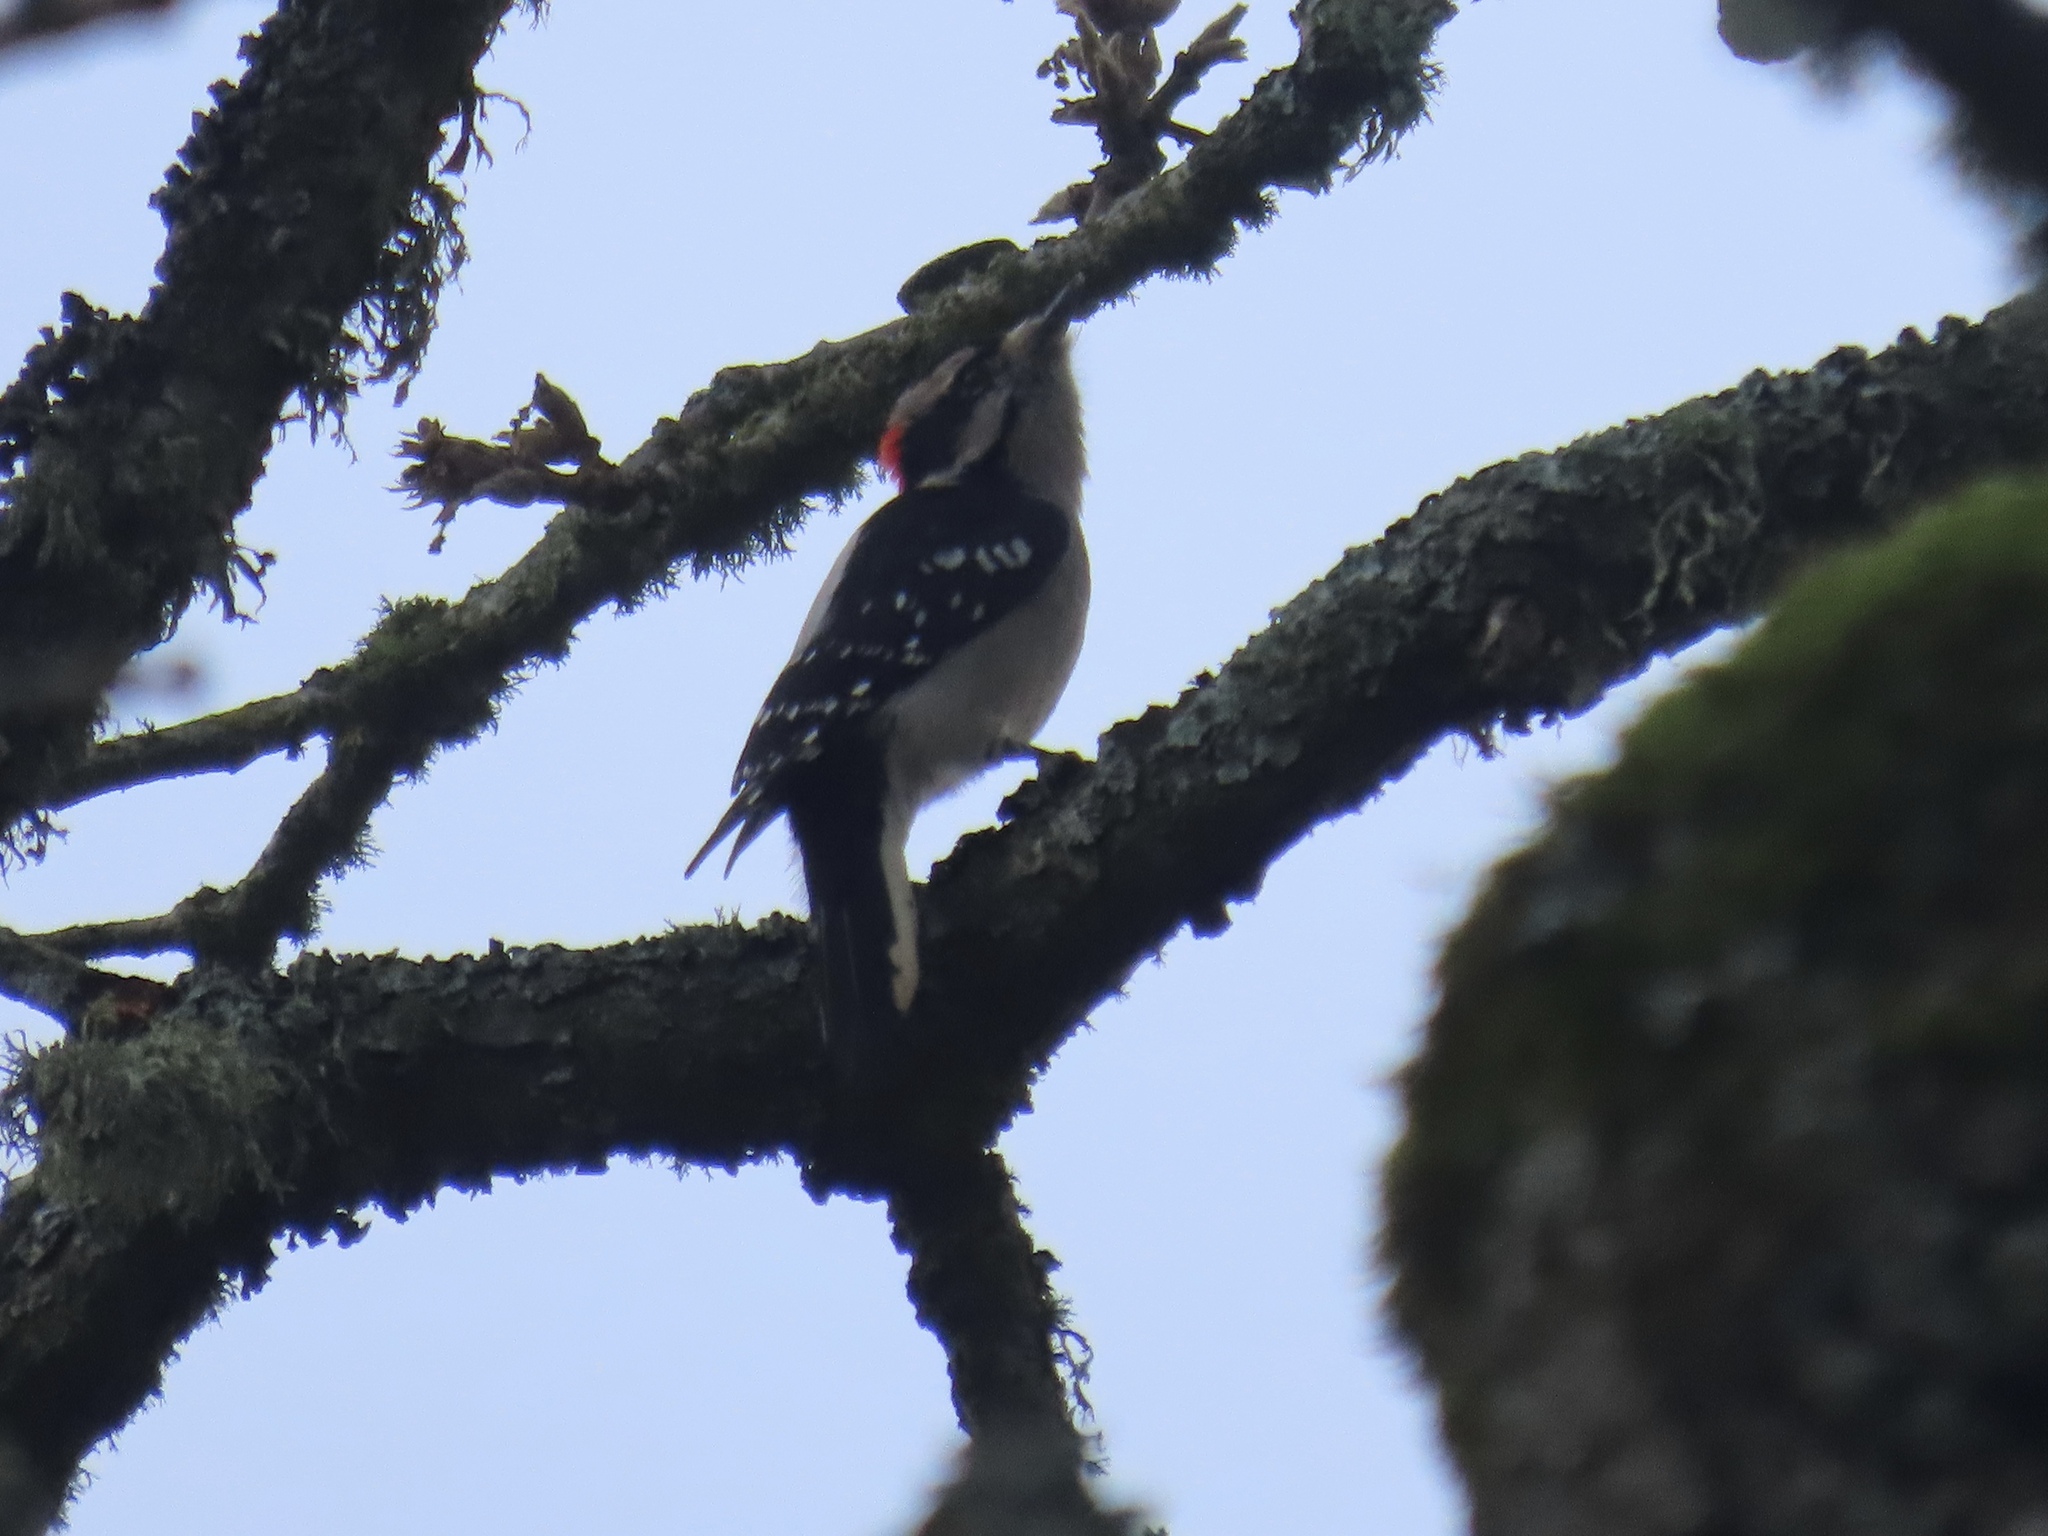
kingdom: Animalia
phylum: Chordata
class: Aves
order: Piciformes
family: Picidae
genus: Dryobates
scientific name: Dryobates pubescens
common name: Downy woodpecker
